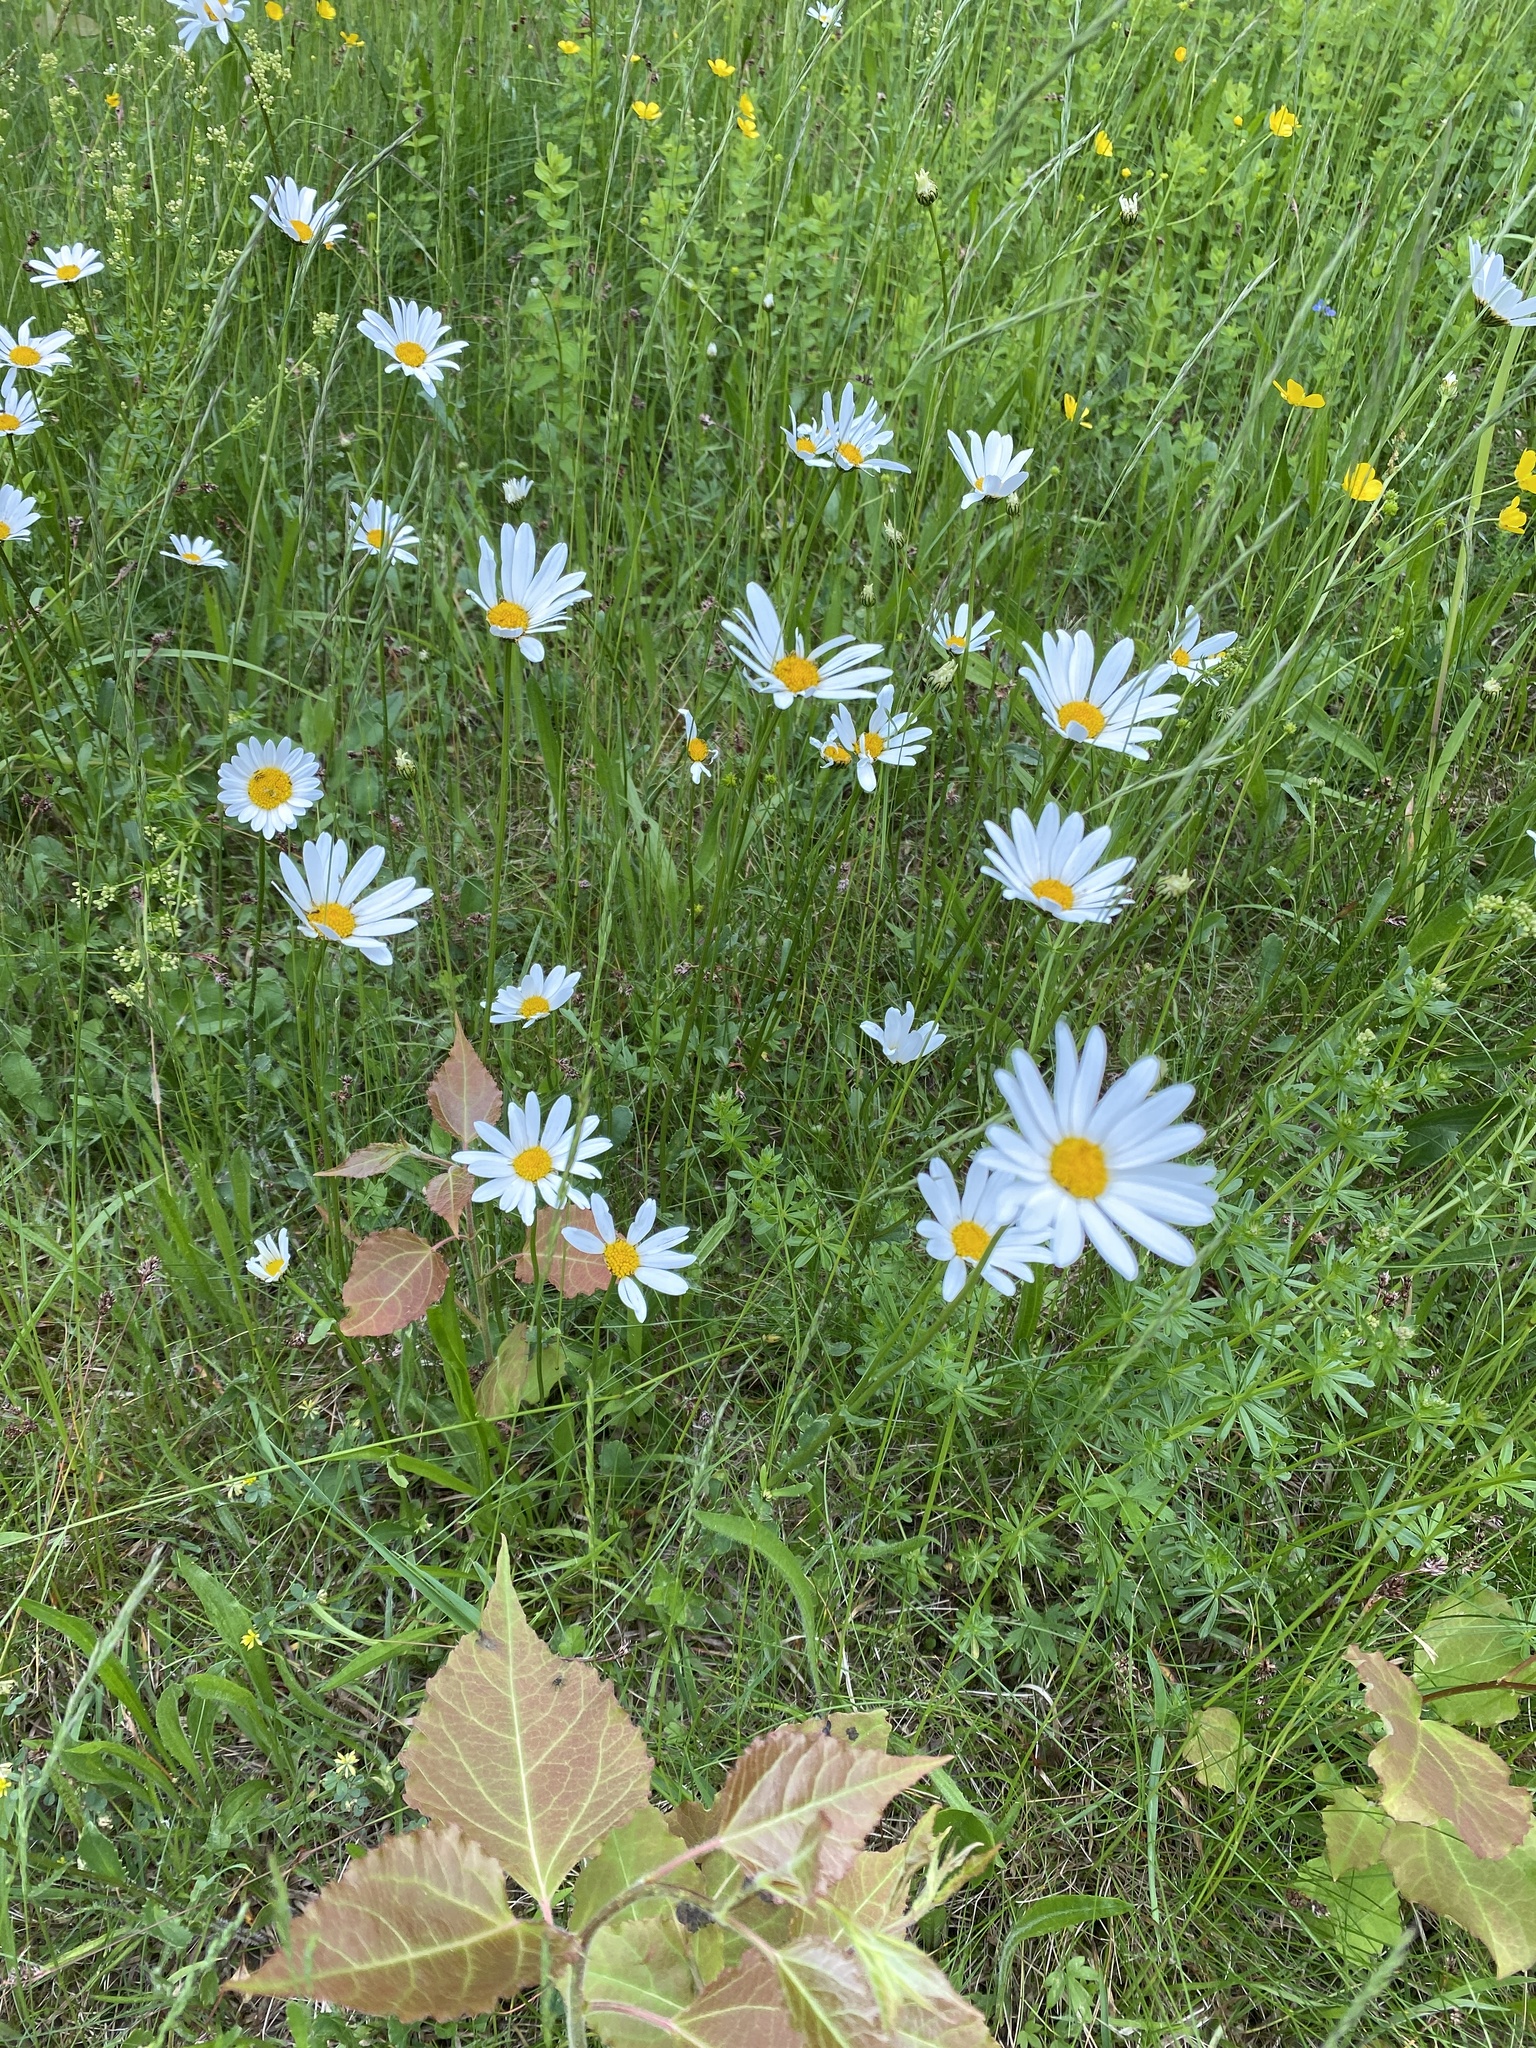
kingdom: Plantae
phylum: Tracheophyta
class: Magnoliopsida
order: Asterales
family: Asteraceae
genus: Leucanthemum
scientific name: Leucanthemum vulgare
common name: Oxeye daisy
